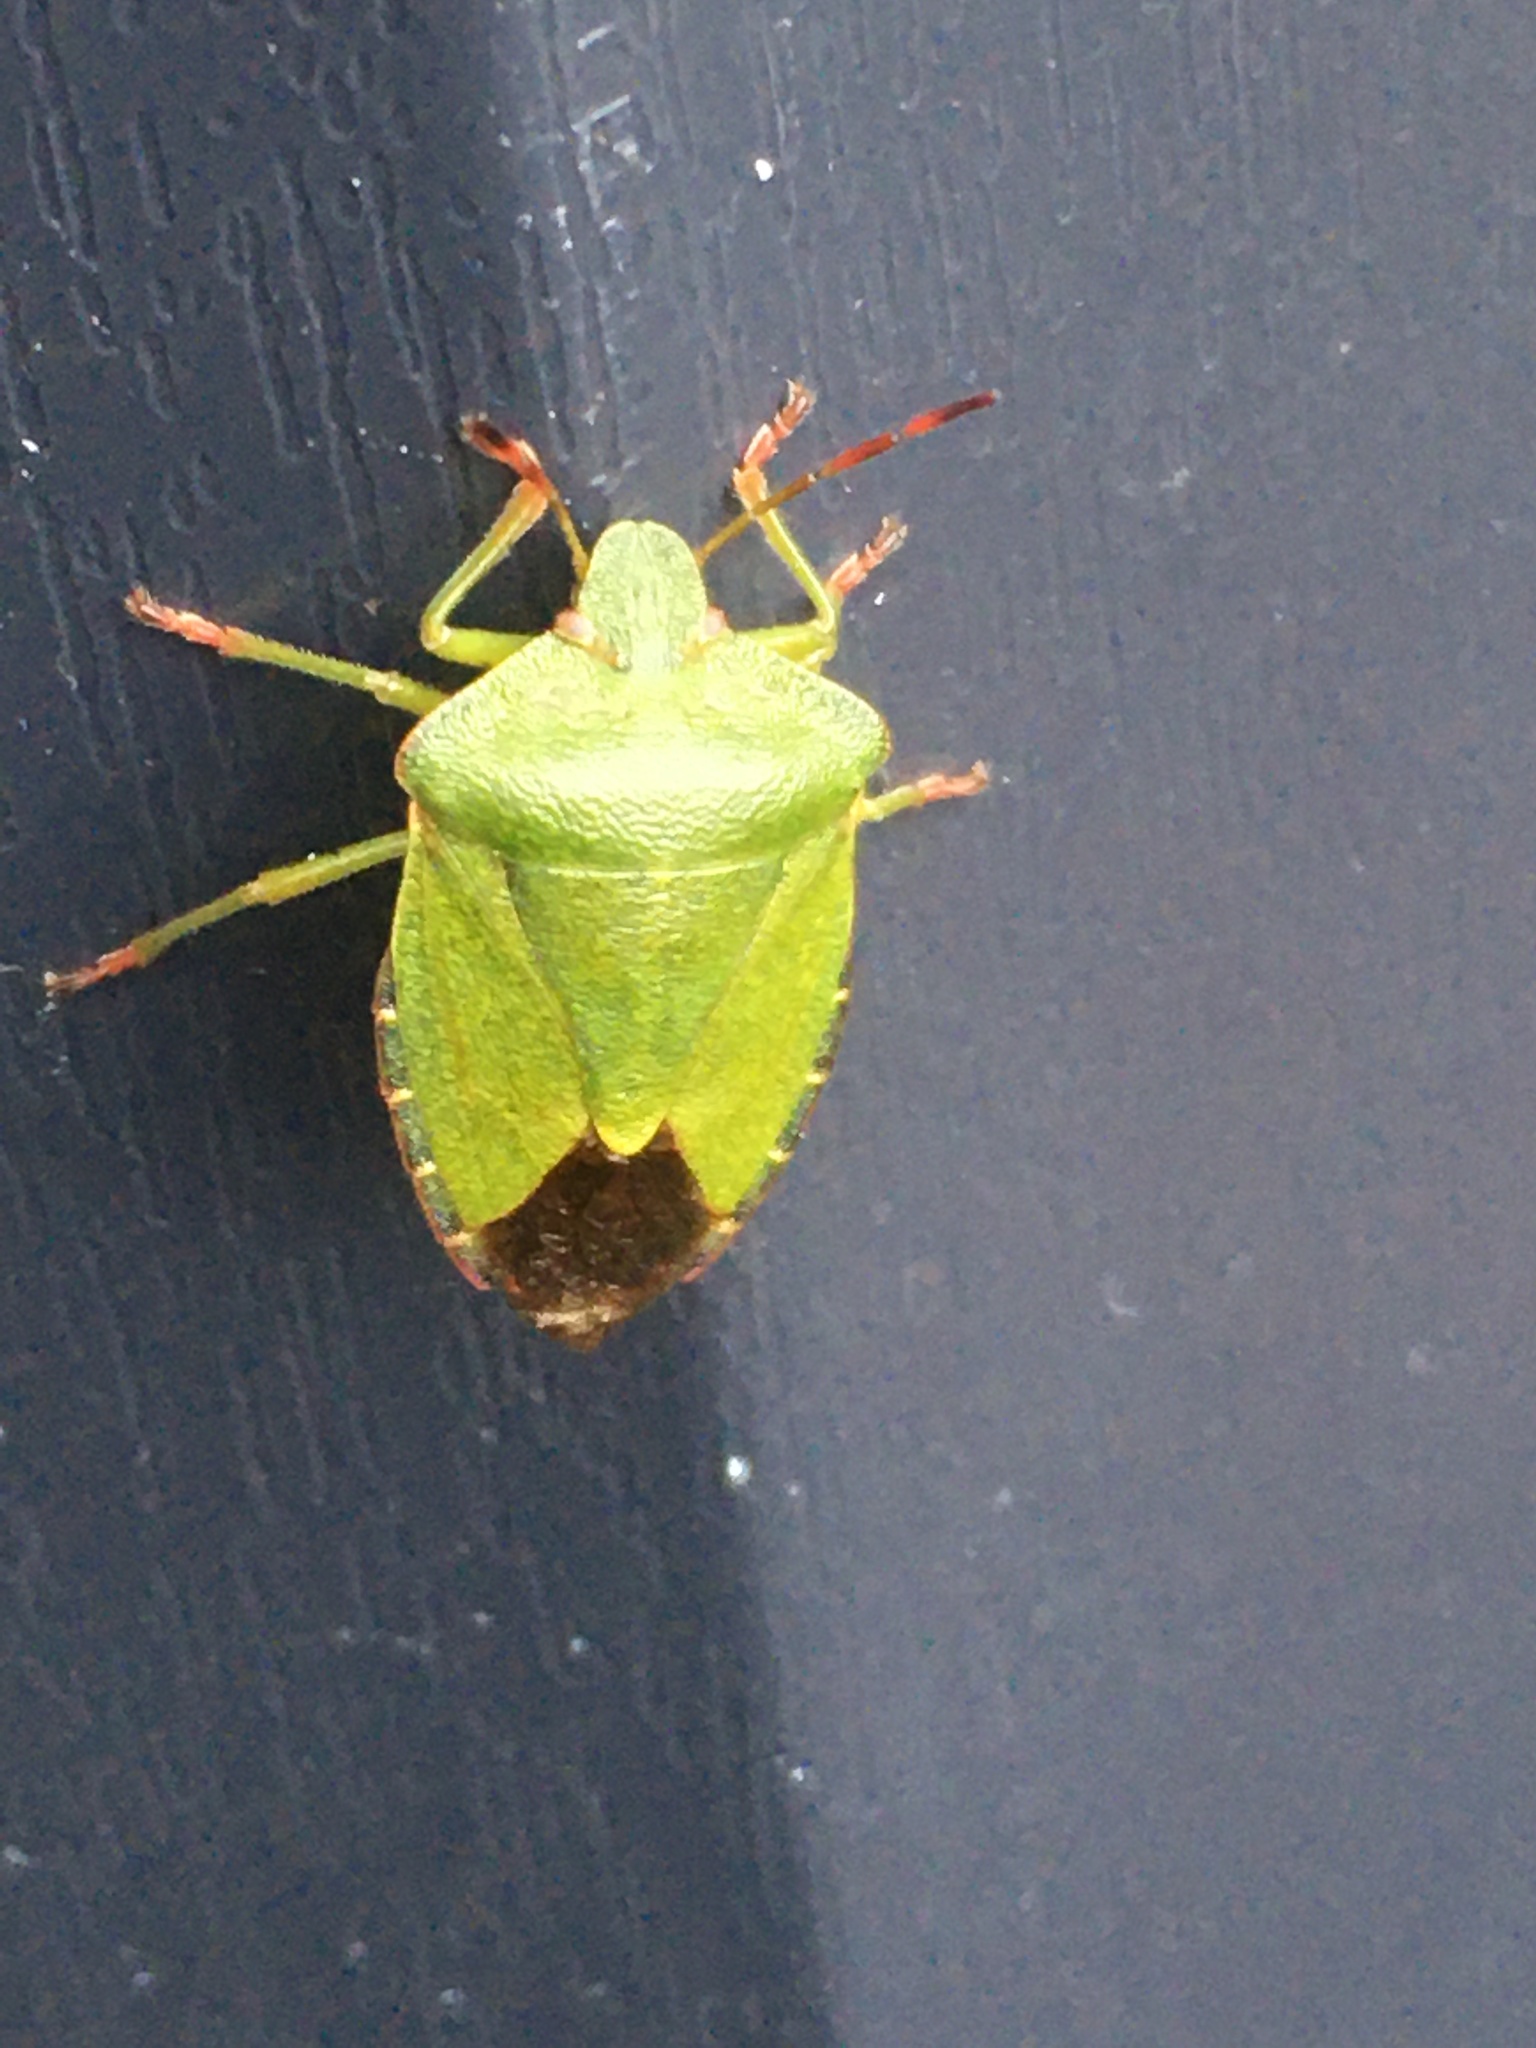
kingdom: Animalia
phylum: Arthropoda
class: Insecta
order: Hemiptera
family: Pentatomidae
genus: Palomena
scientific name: Palomena prasina
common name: Green shieldbug
